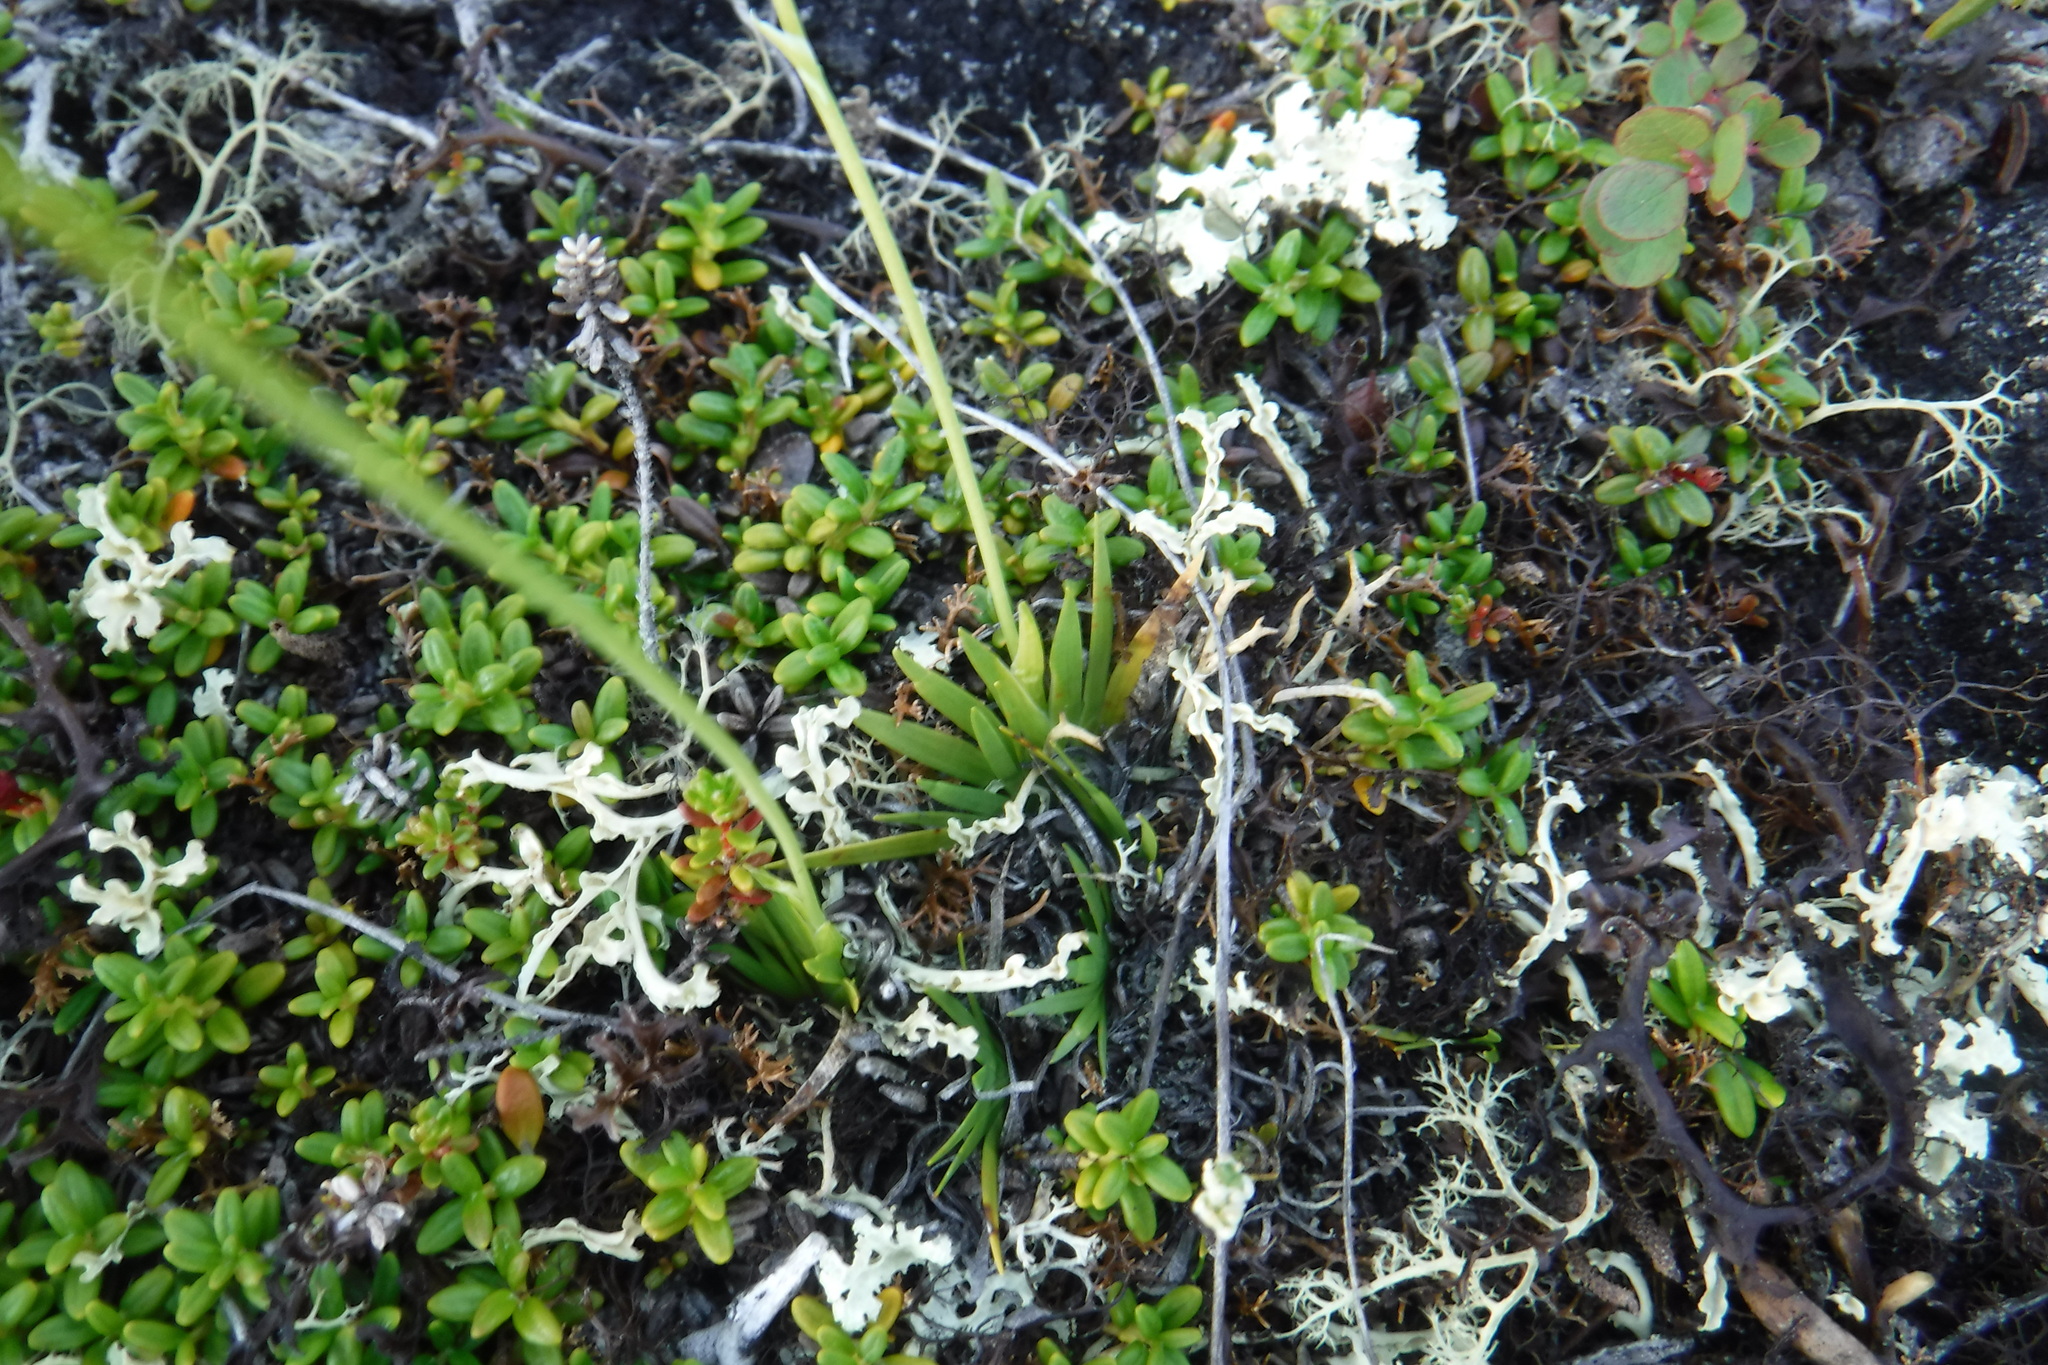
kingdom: Plantae
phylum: Tracheophyta
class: Liliopsida
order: Alismatales
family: Tofieldiaceae
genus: Tofieldia
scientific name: Tofieldia pusilla
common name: Scottish false asphodel
